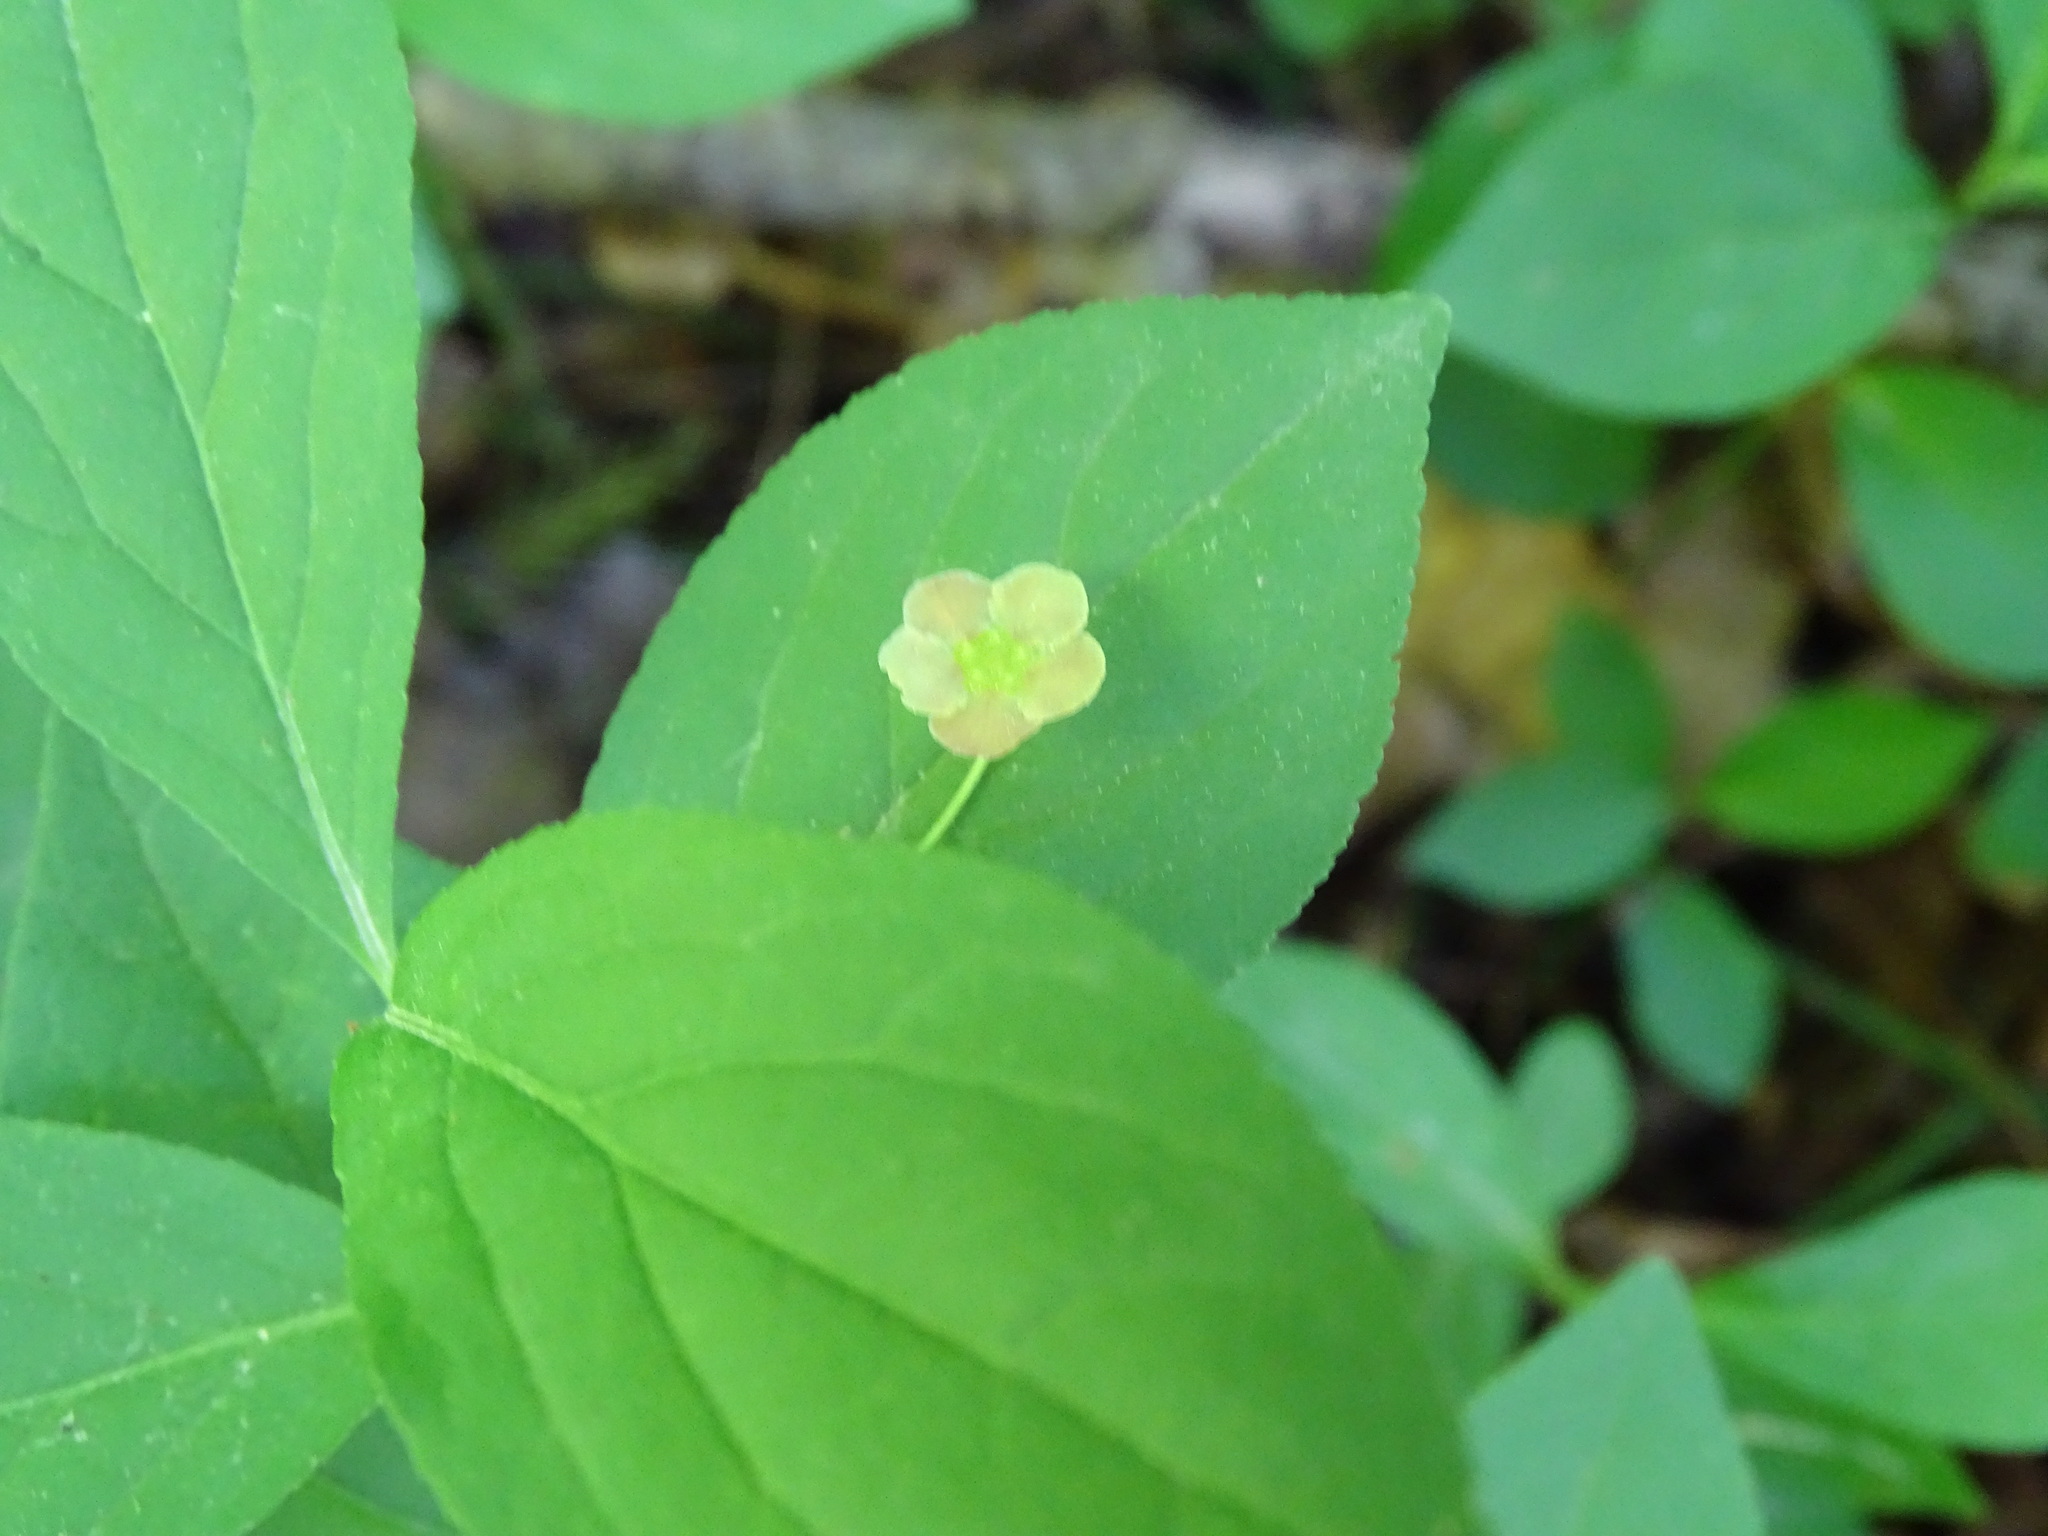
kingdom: Plantae
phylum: Tracheophyta
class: Magnoliopsida
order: Celastrales
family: Celastraceae
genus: Euonymus
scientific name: Euonymus obovatus
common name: Running strawberry-bush
